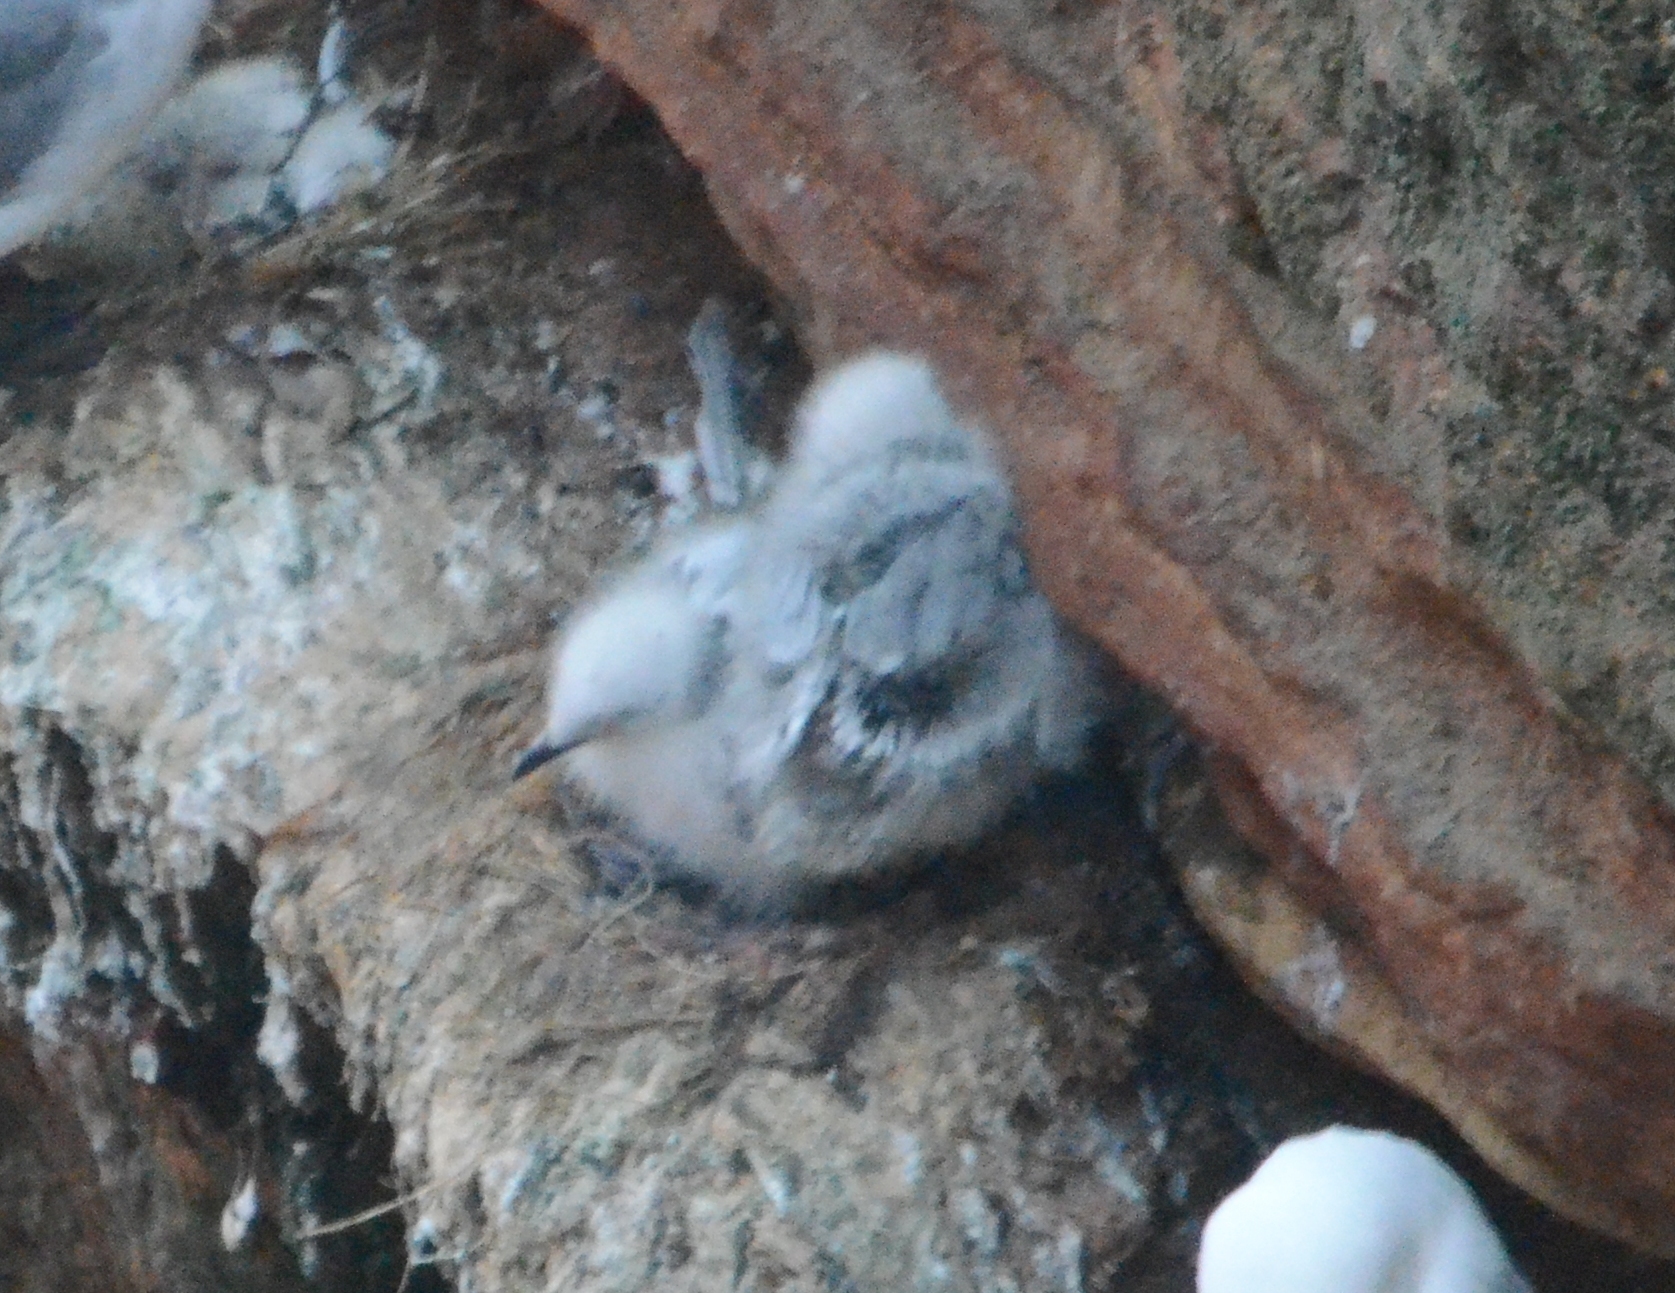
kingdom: Animalia
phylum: Chordata
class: Aves
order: Charadriiformes
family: Laridae
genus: Rissa
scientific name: Rissa tridactyla
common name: Black-legged kittiwake
